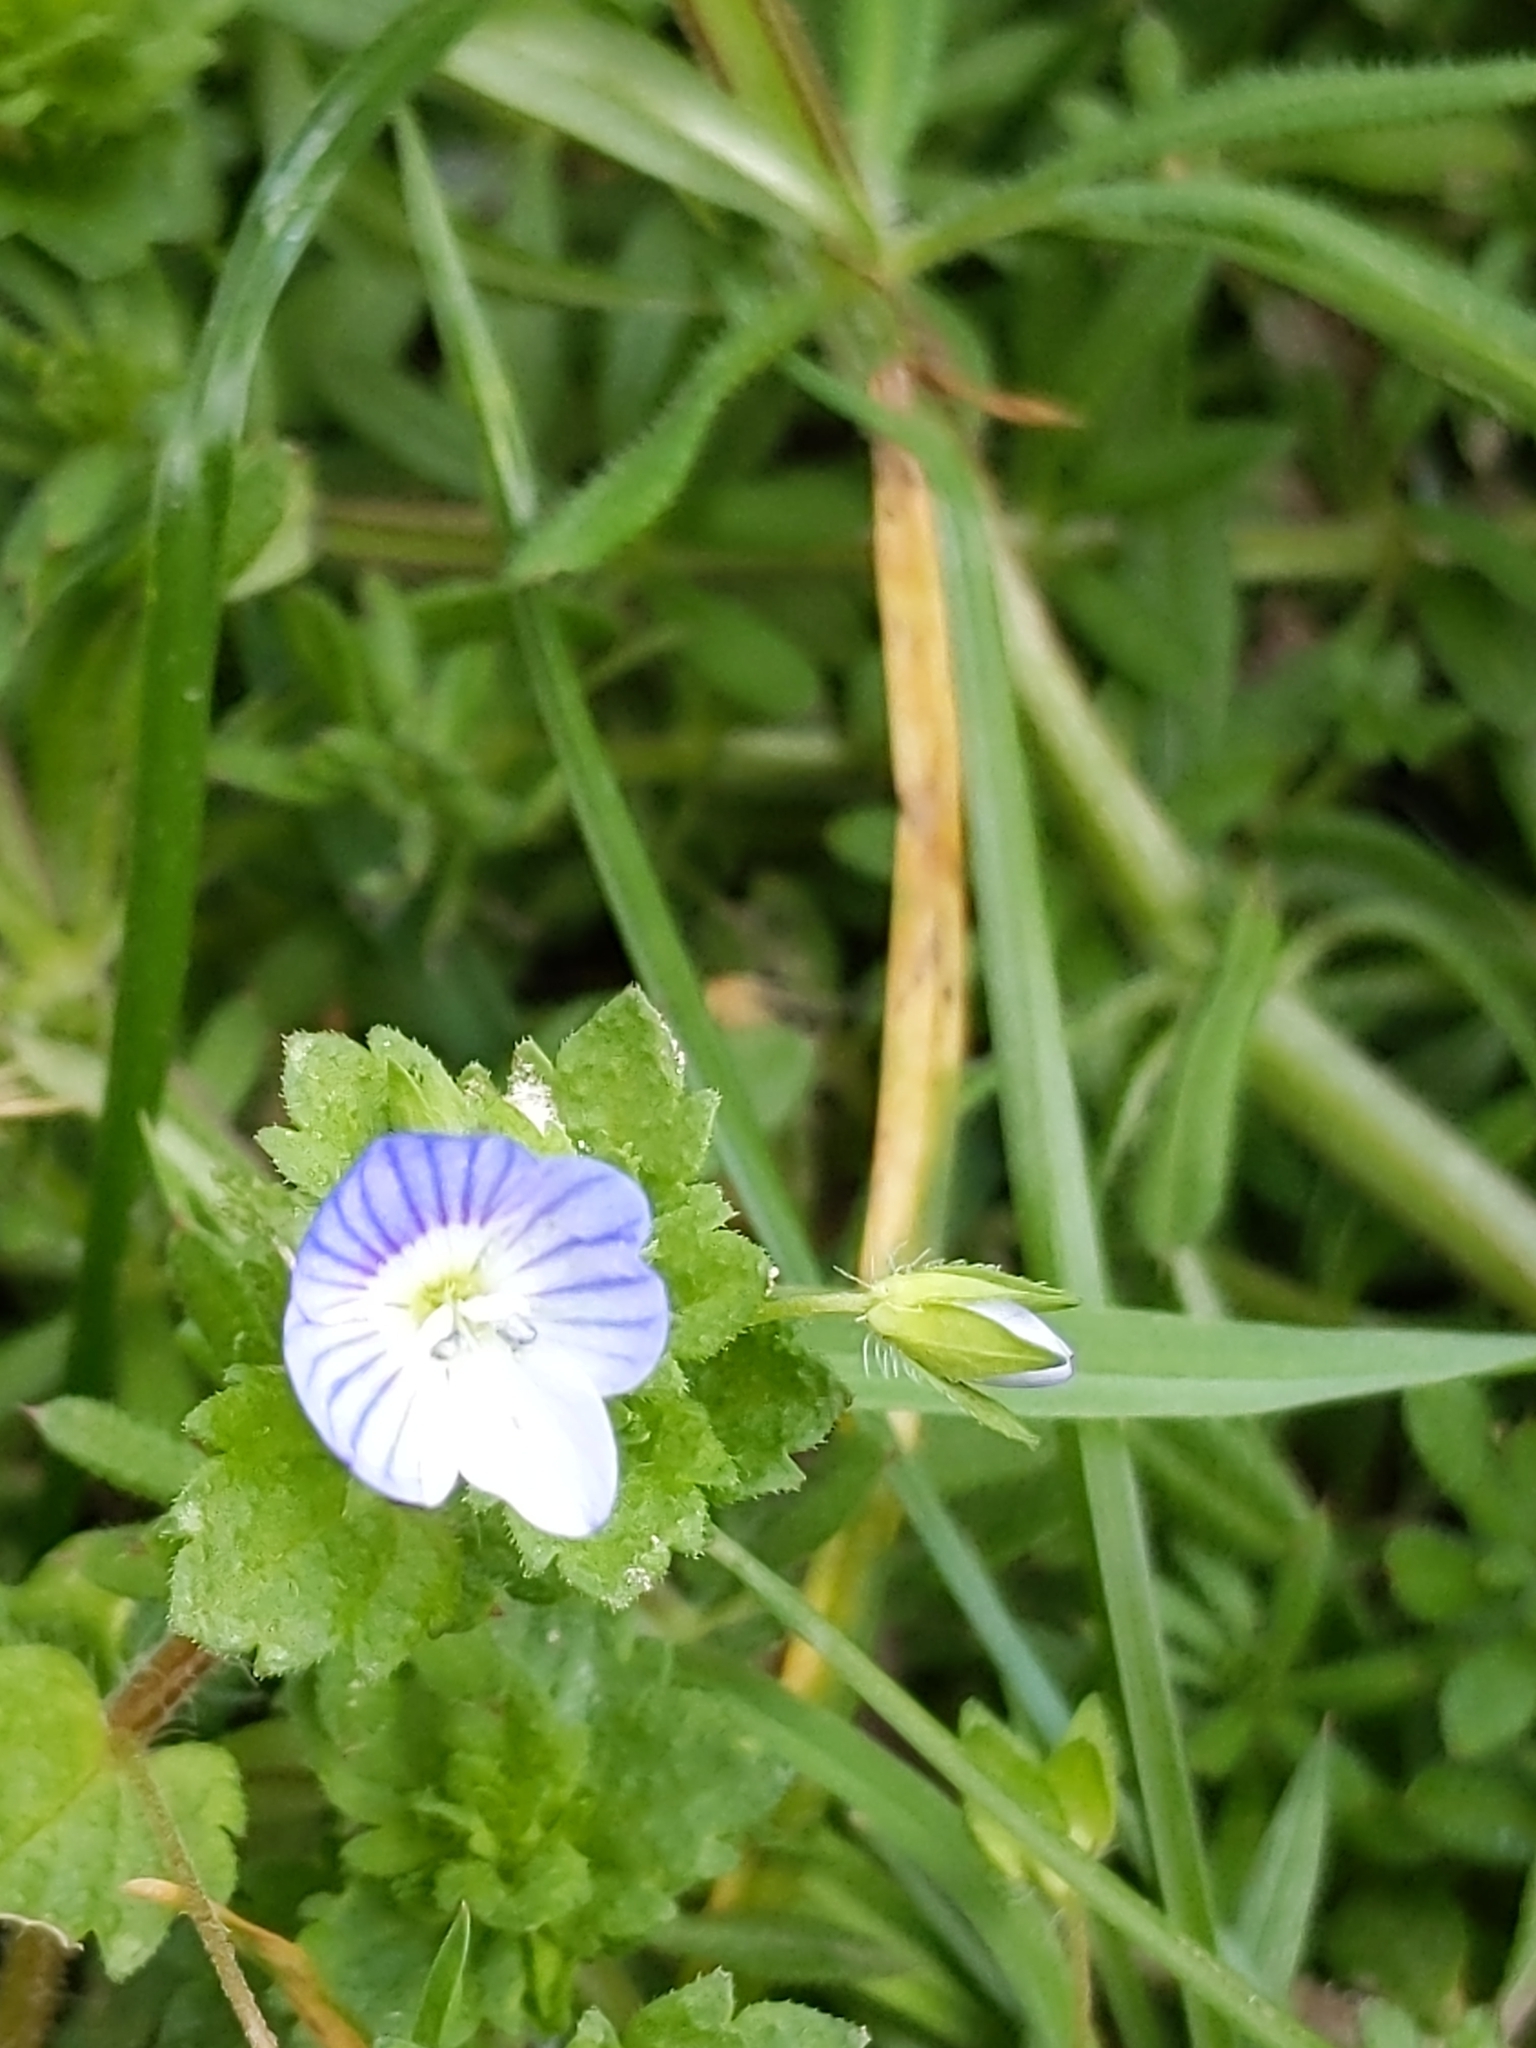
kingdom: Plantae
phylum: Tracheophyta
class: Magnoliopsida
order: Lamiales
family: Plantaginaceae
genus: Veronica
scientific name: Veronica persica
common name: Common field-speedwell
